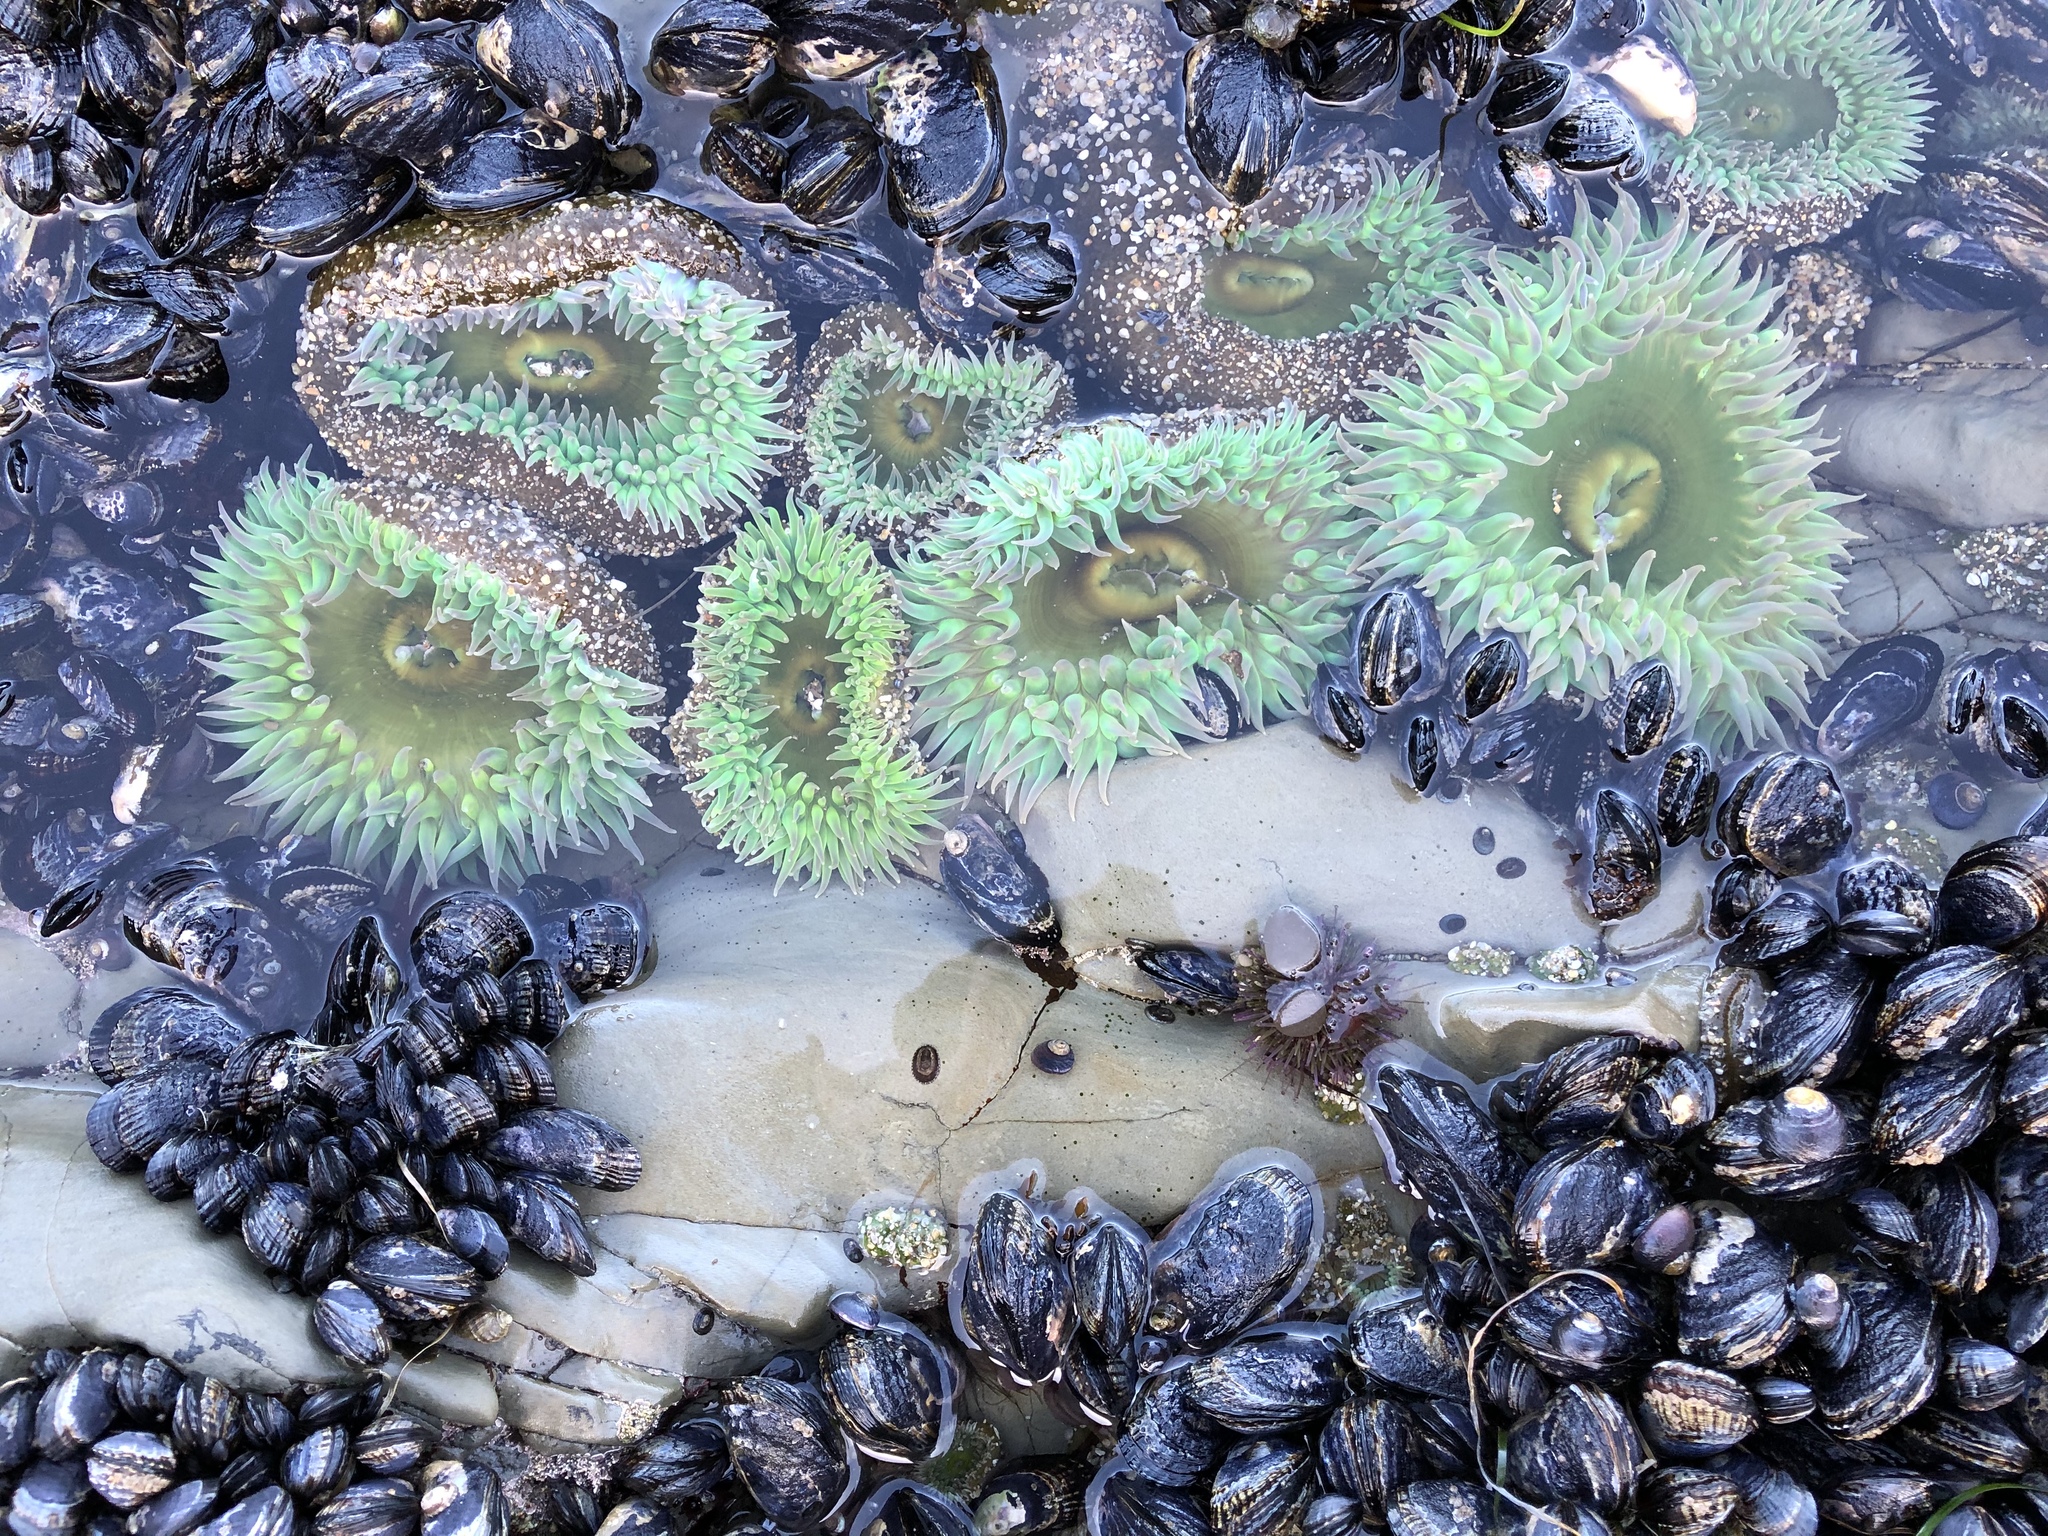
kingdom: Animalia
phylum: Cnidaria
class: Anthozoa
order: Actiniaria
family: Actiniidae
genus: Anthopleura
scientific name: Anthopleura xanthogrammica
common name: Giant green anemone
